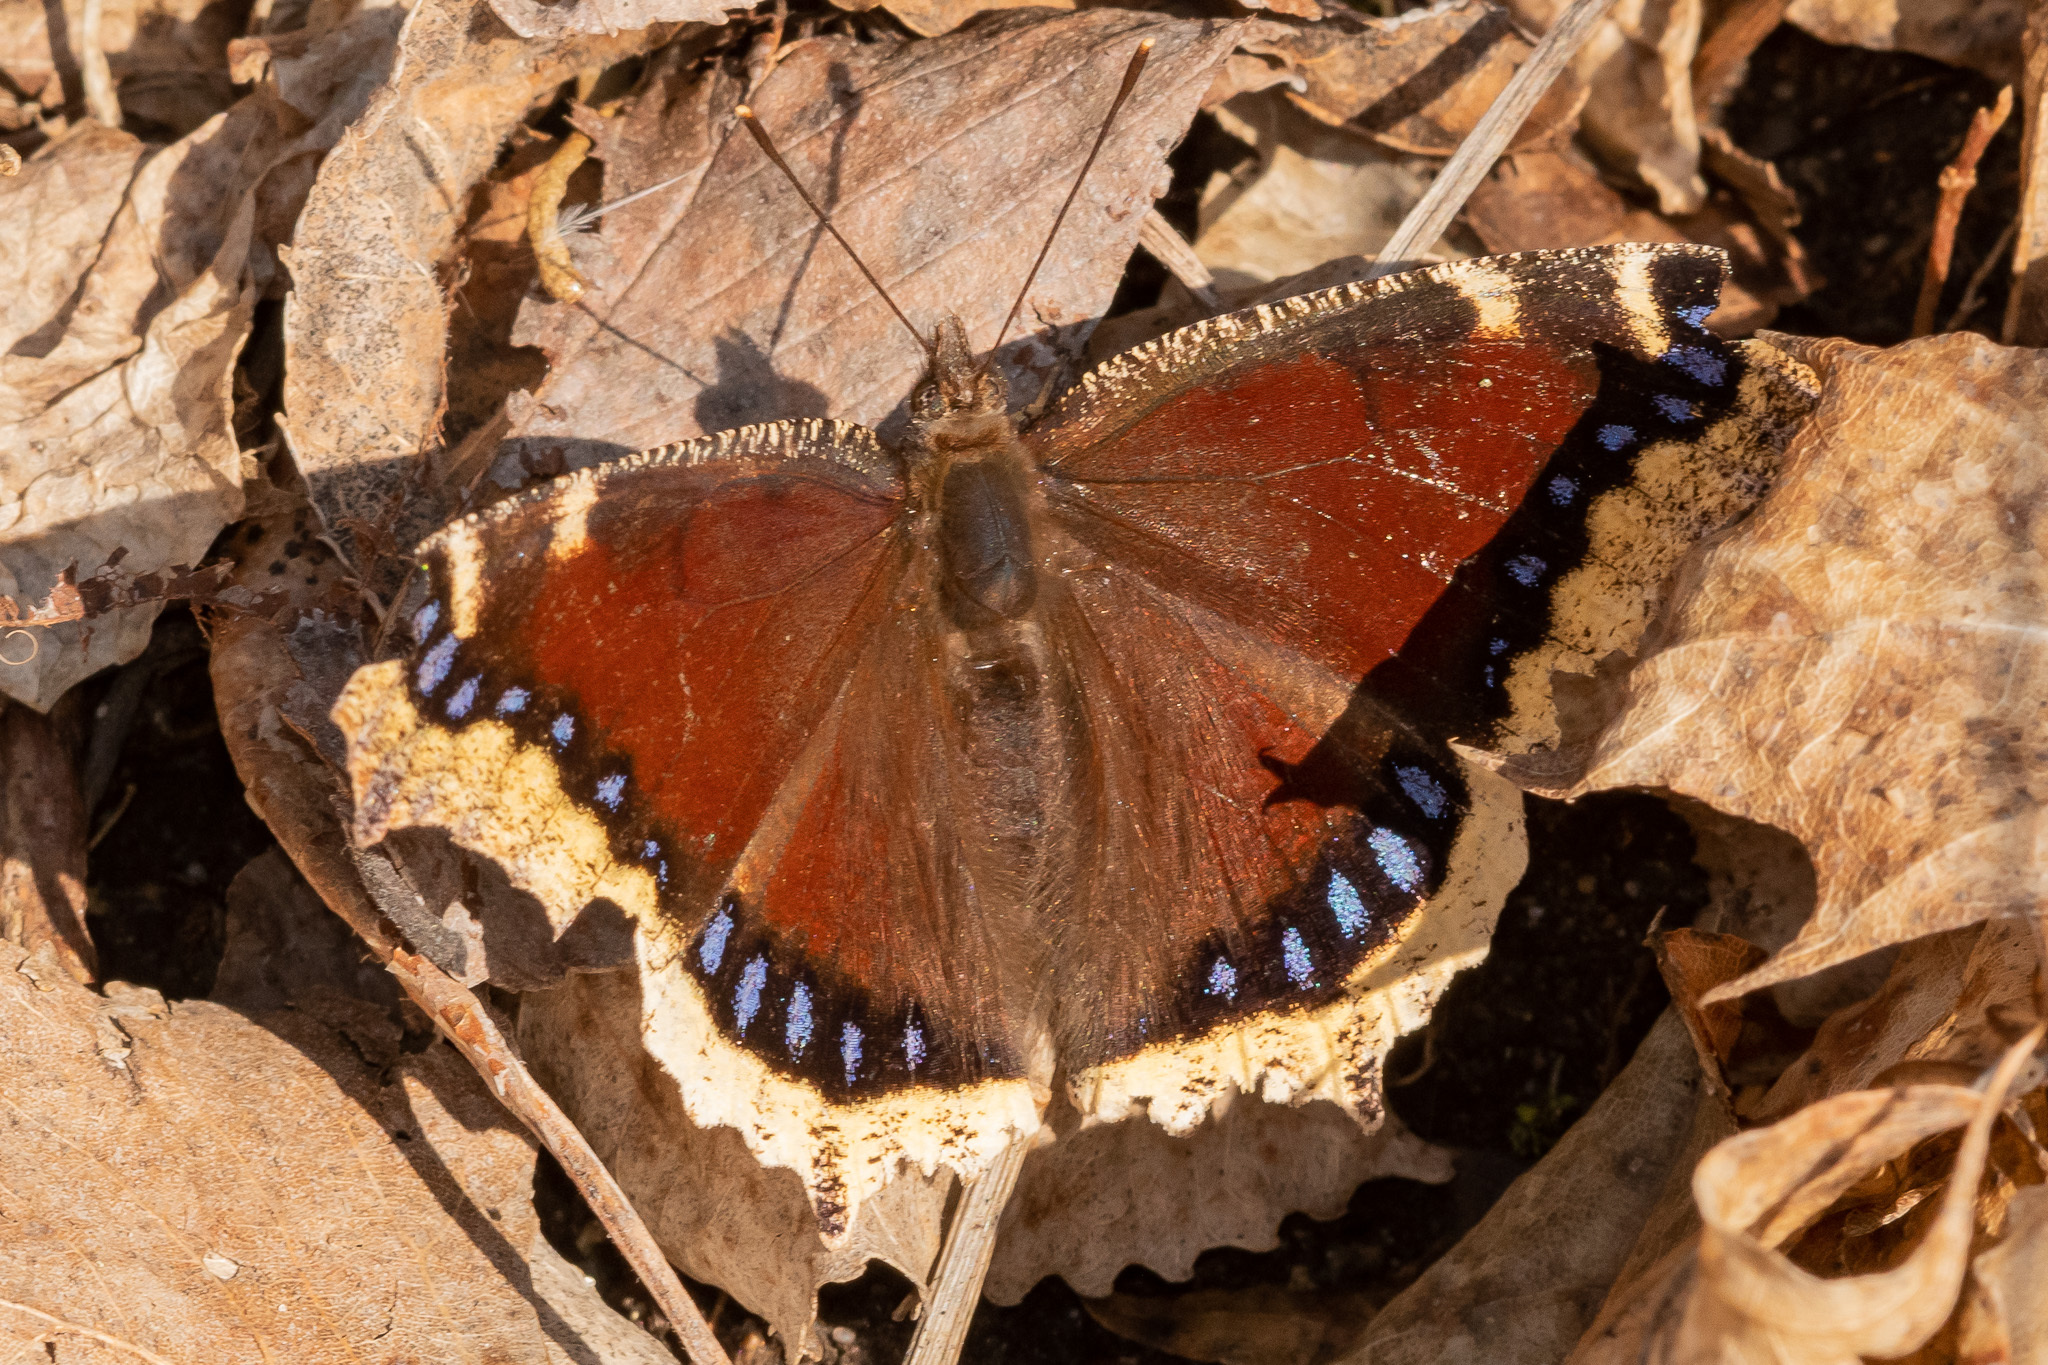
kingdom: Animalia
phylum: Arthropoda
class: Insecta
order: Lepidoptera
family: Nymphalidae
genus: Nymphalis
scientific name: Nymphalis antiopa
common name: Camberwell beauty
